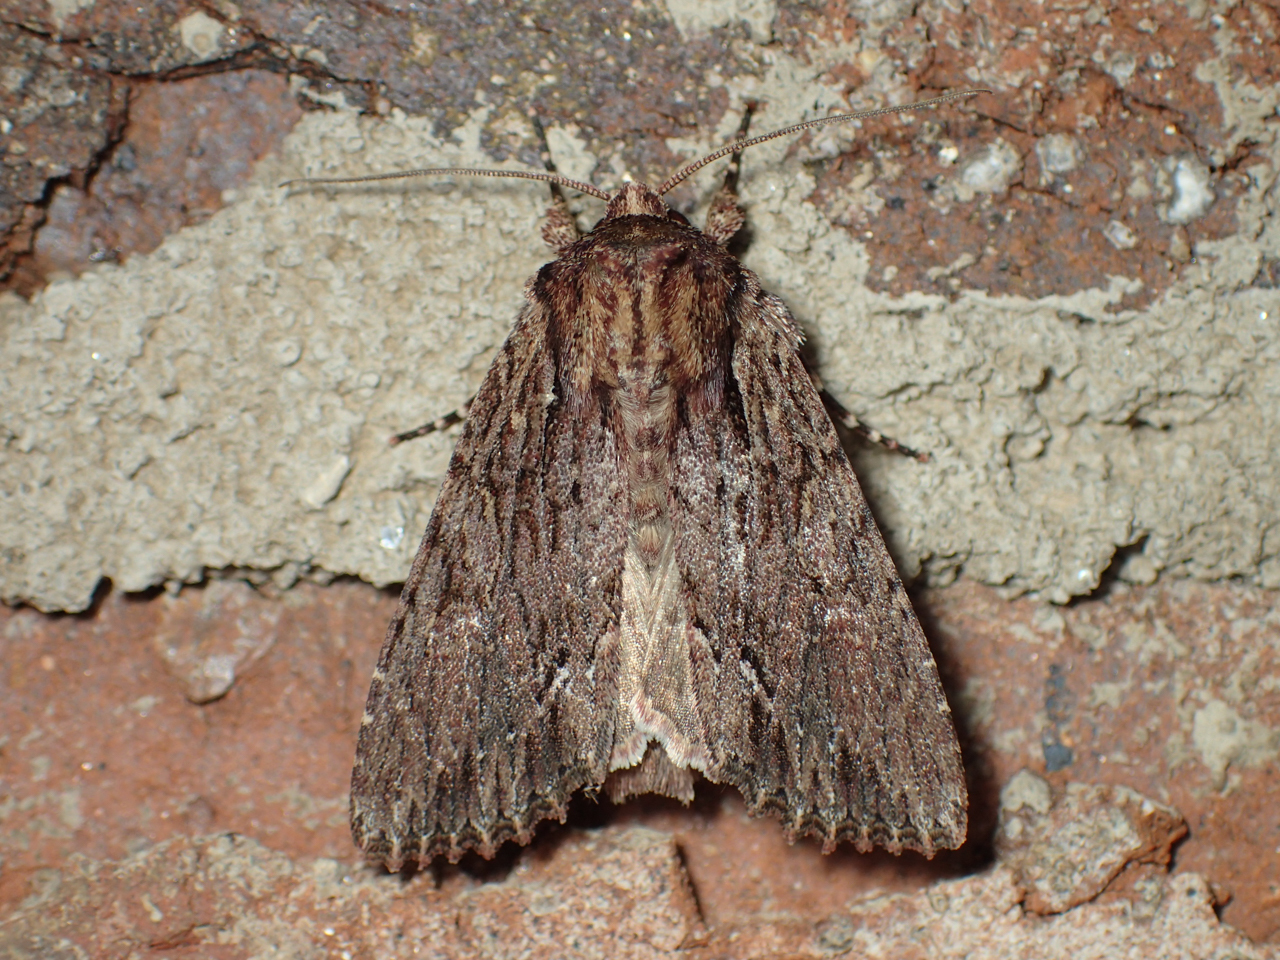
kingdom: Animalia
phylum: Arthropoda
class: Insecta
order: Lepidoptera
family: Noctuidae
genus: Achatia
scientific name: Achatia confusa
